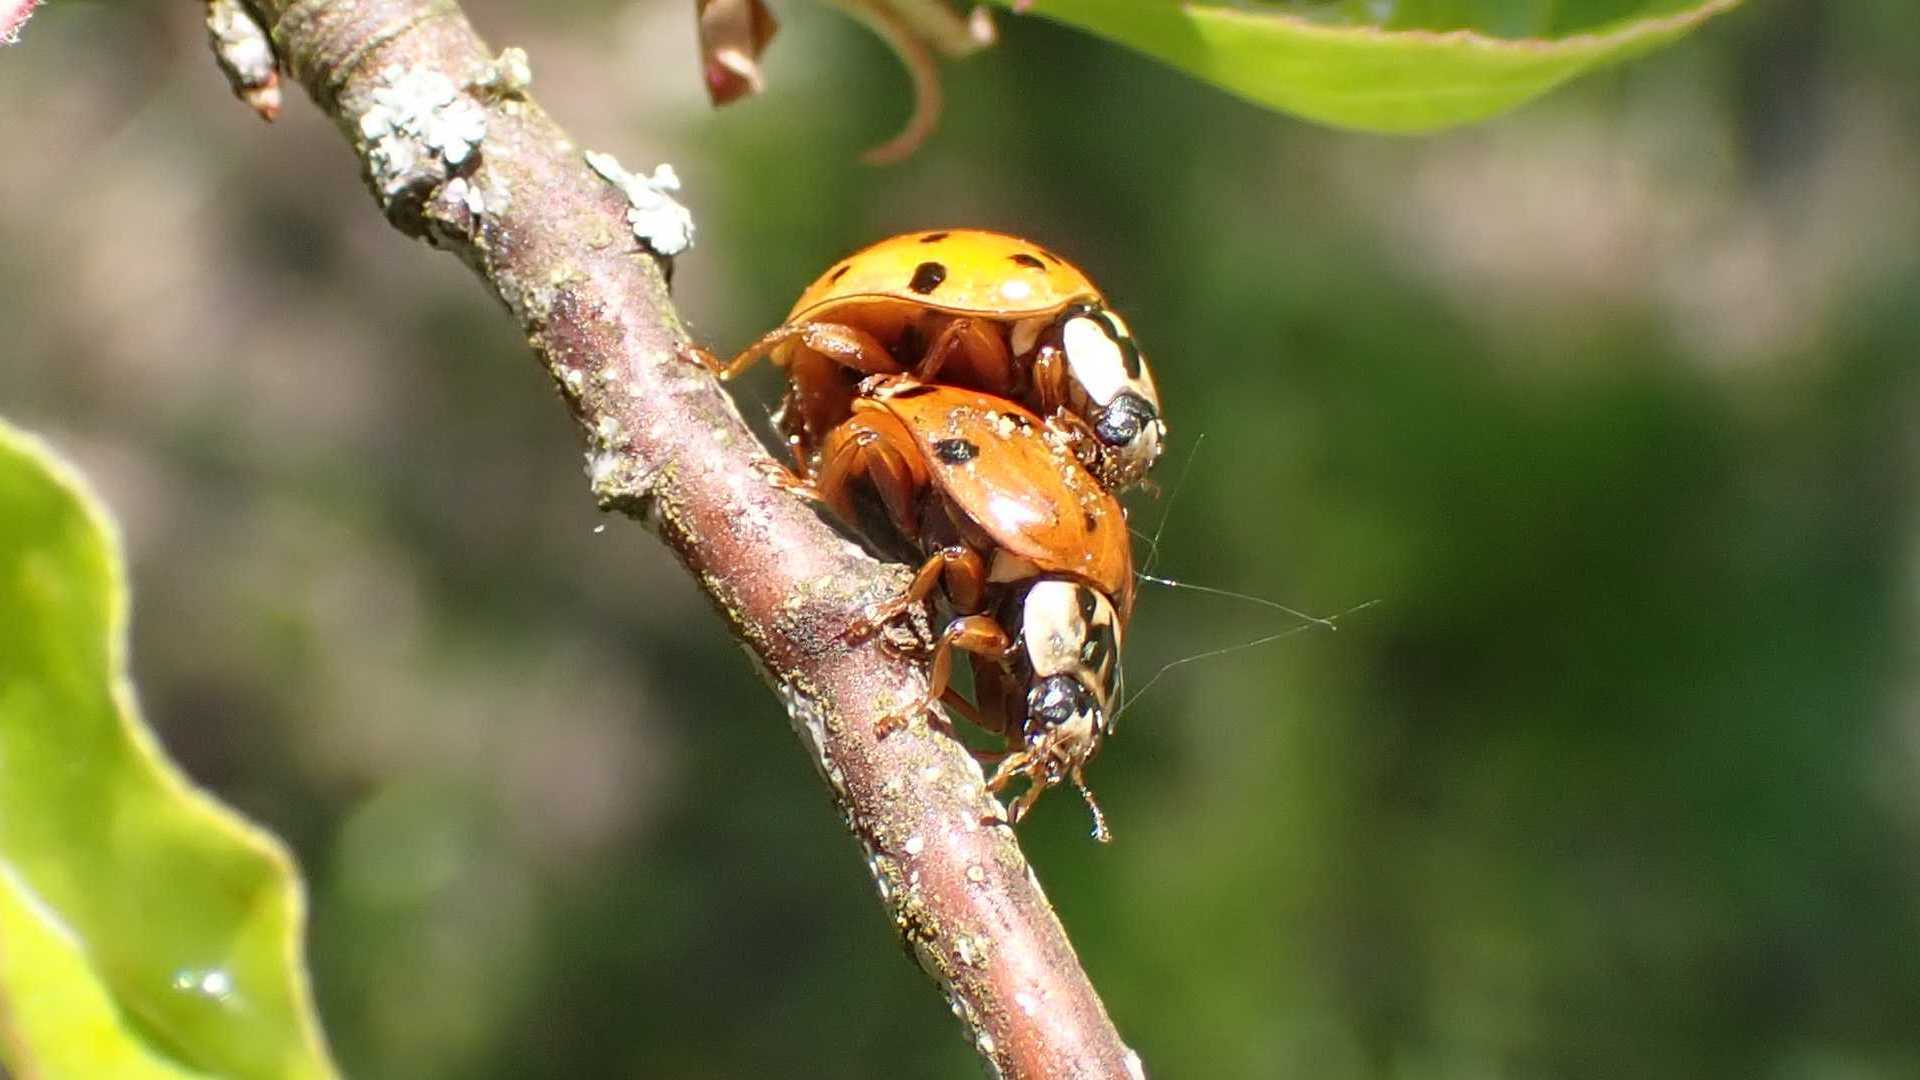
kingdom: Animalia
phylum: Arthropoda
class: Insecta
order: Coleoptera
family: Coccinellidae
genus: Harmonia
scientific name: Harmonia axyridis
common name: Harlequin ladybird
